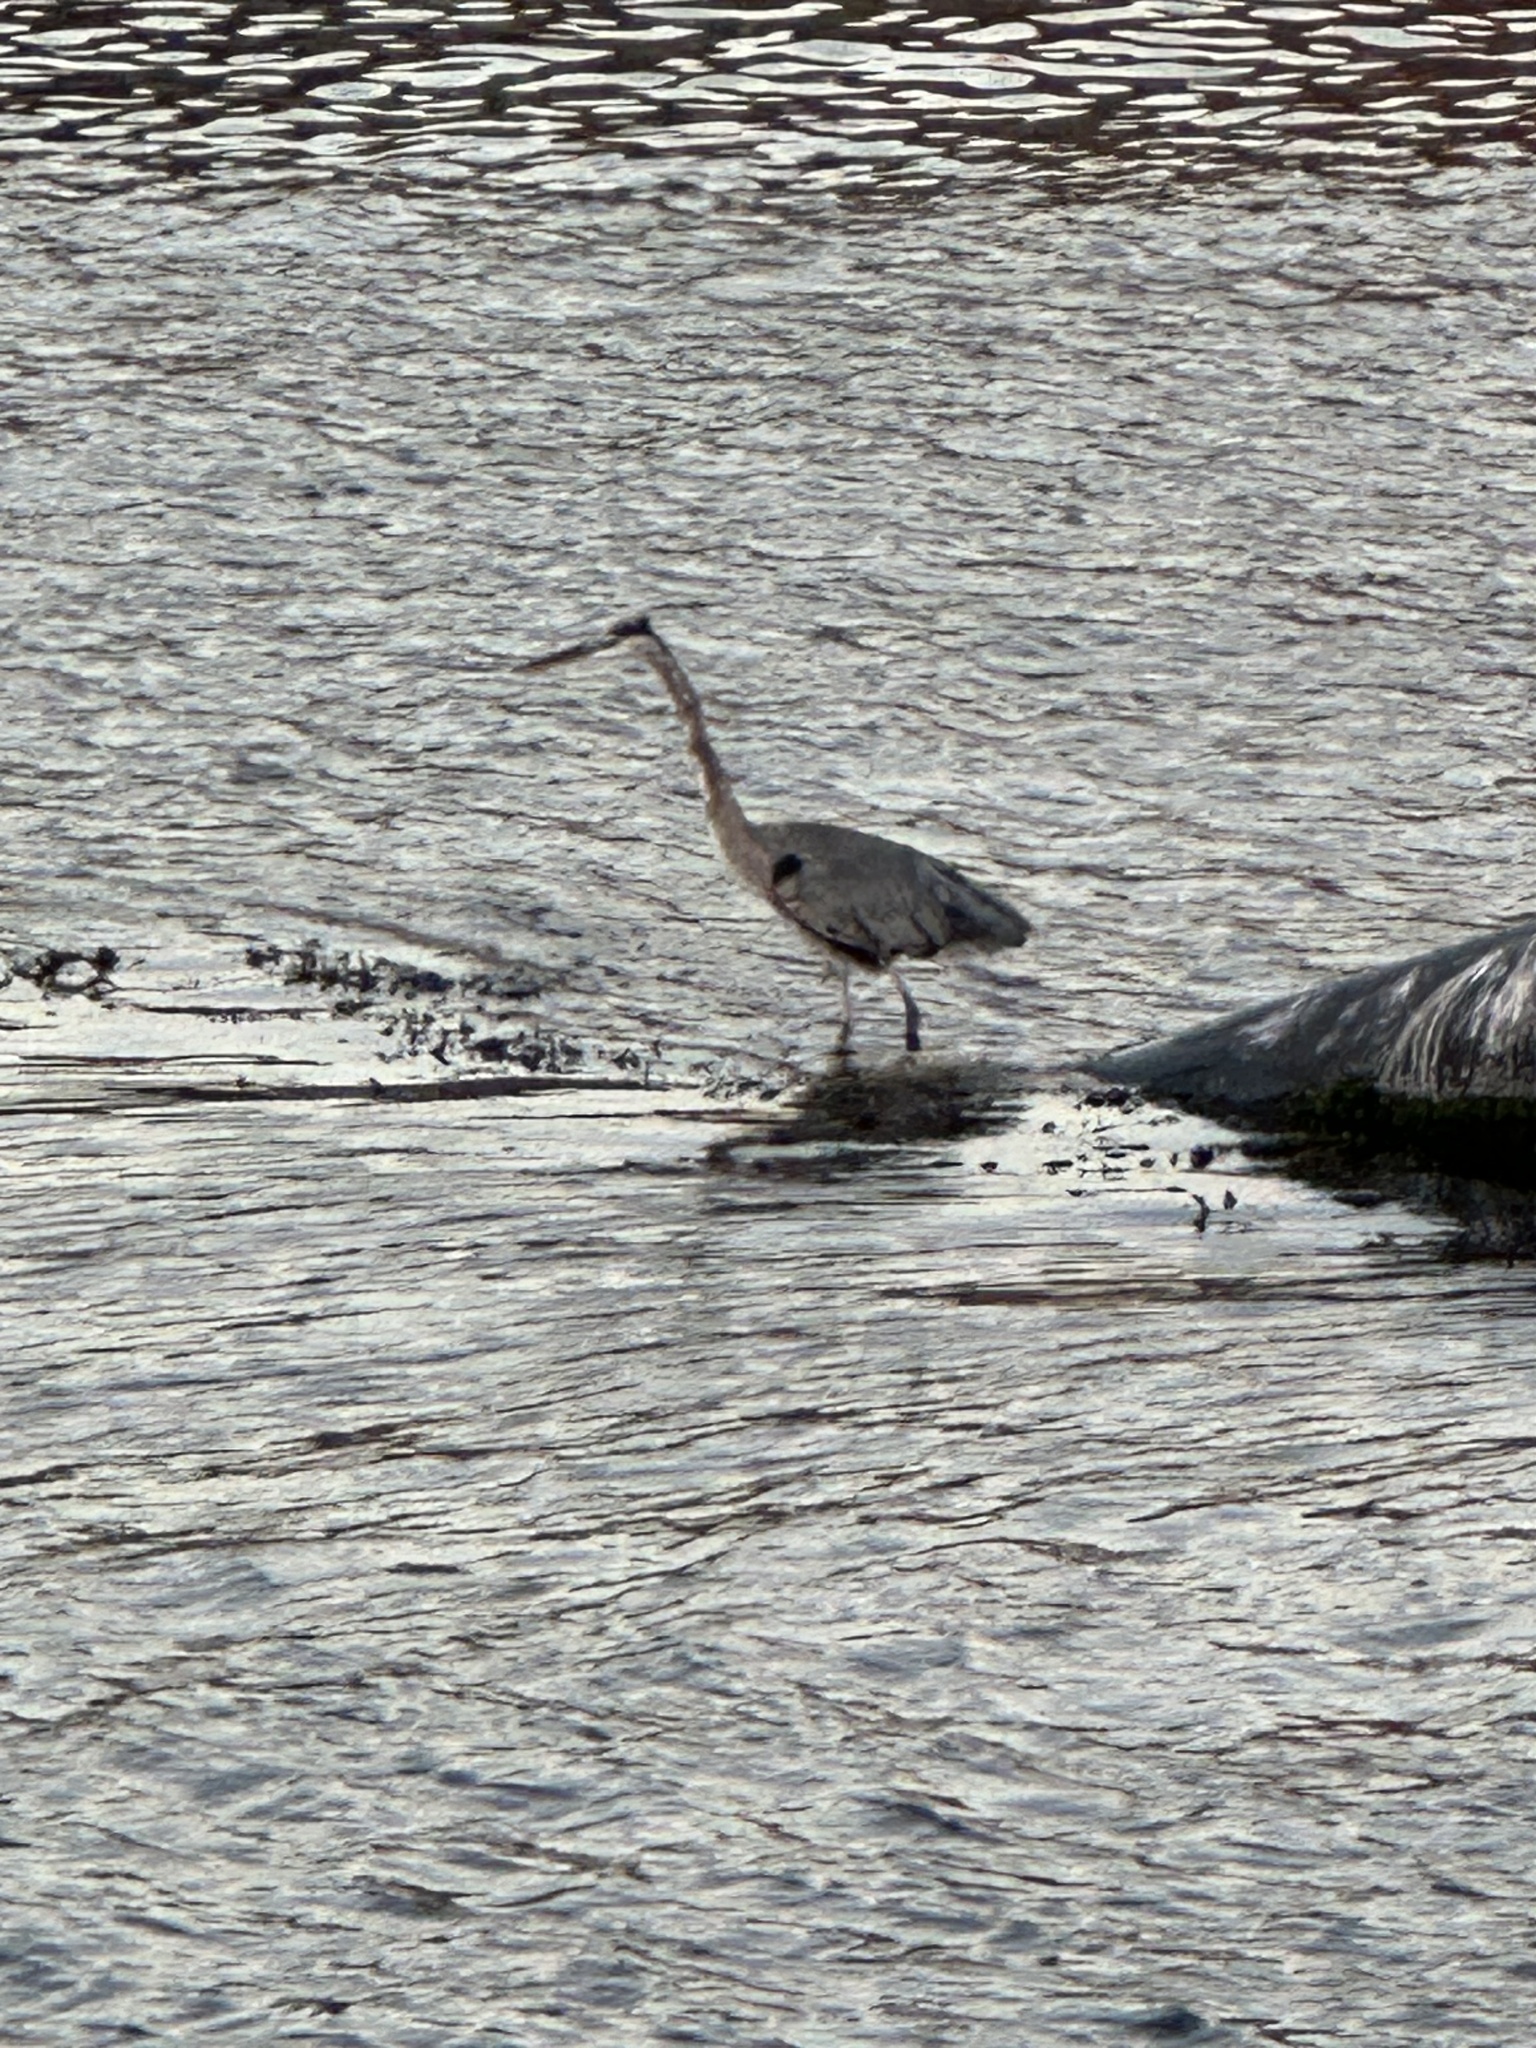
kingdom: Animalia
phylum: Chordata
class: Aves
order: Pelecaniformes
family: Ardeidae
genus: Ardea
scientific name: Ardea herodias
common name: Great blue heron
